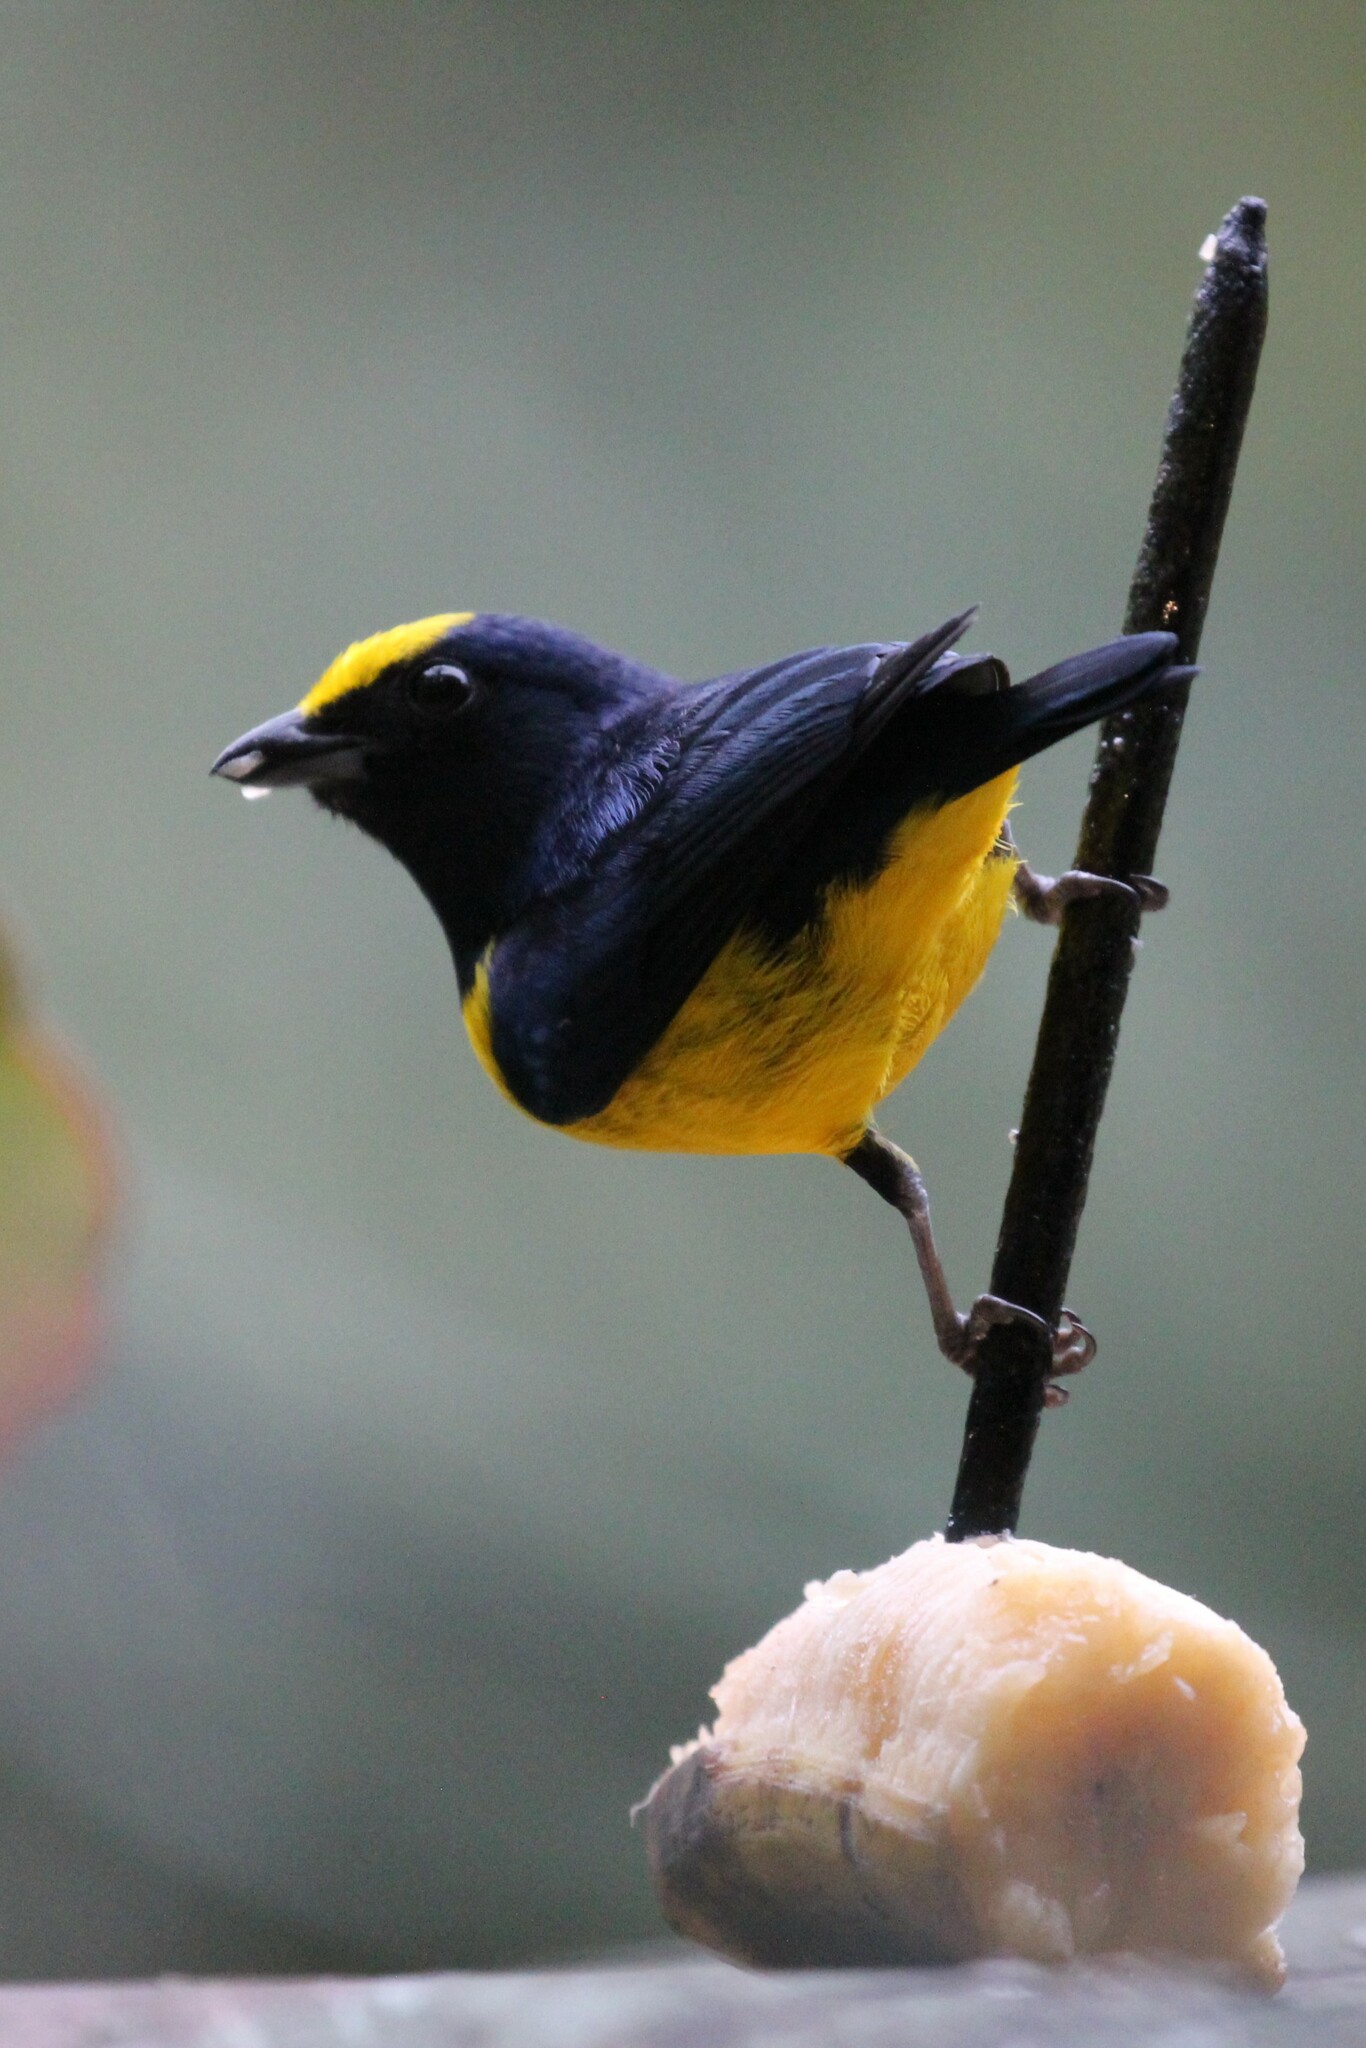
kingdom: Animalia
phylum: Chordata
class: Aves
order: Passeriformes
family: Fringillidae
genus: Euphonia
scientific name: Euphonia imitans
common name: Spot-crowned euphonia
